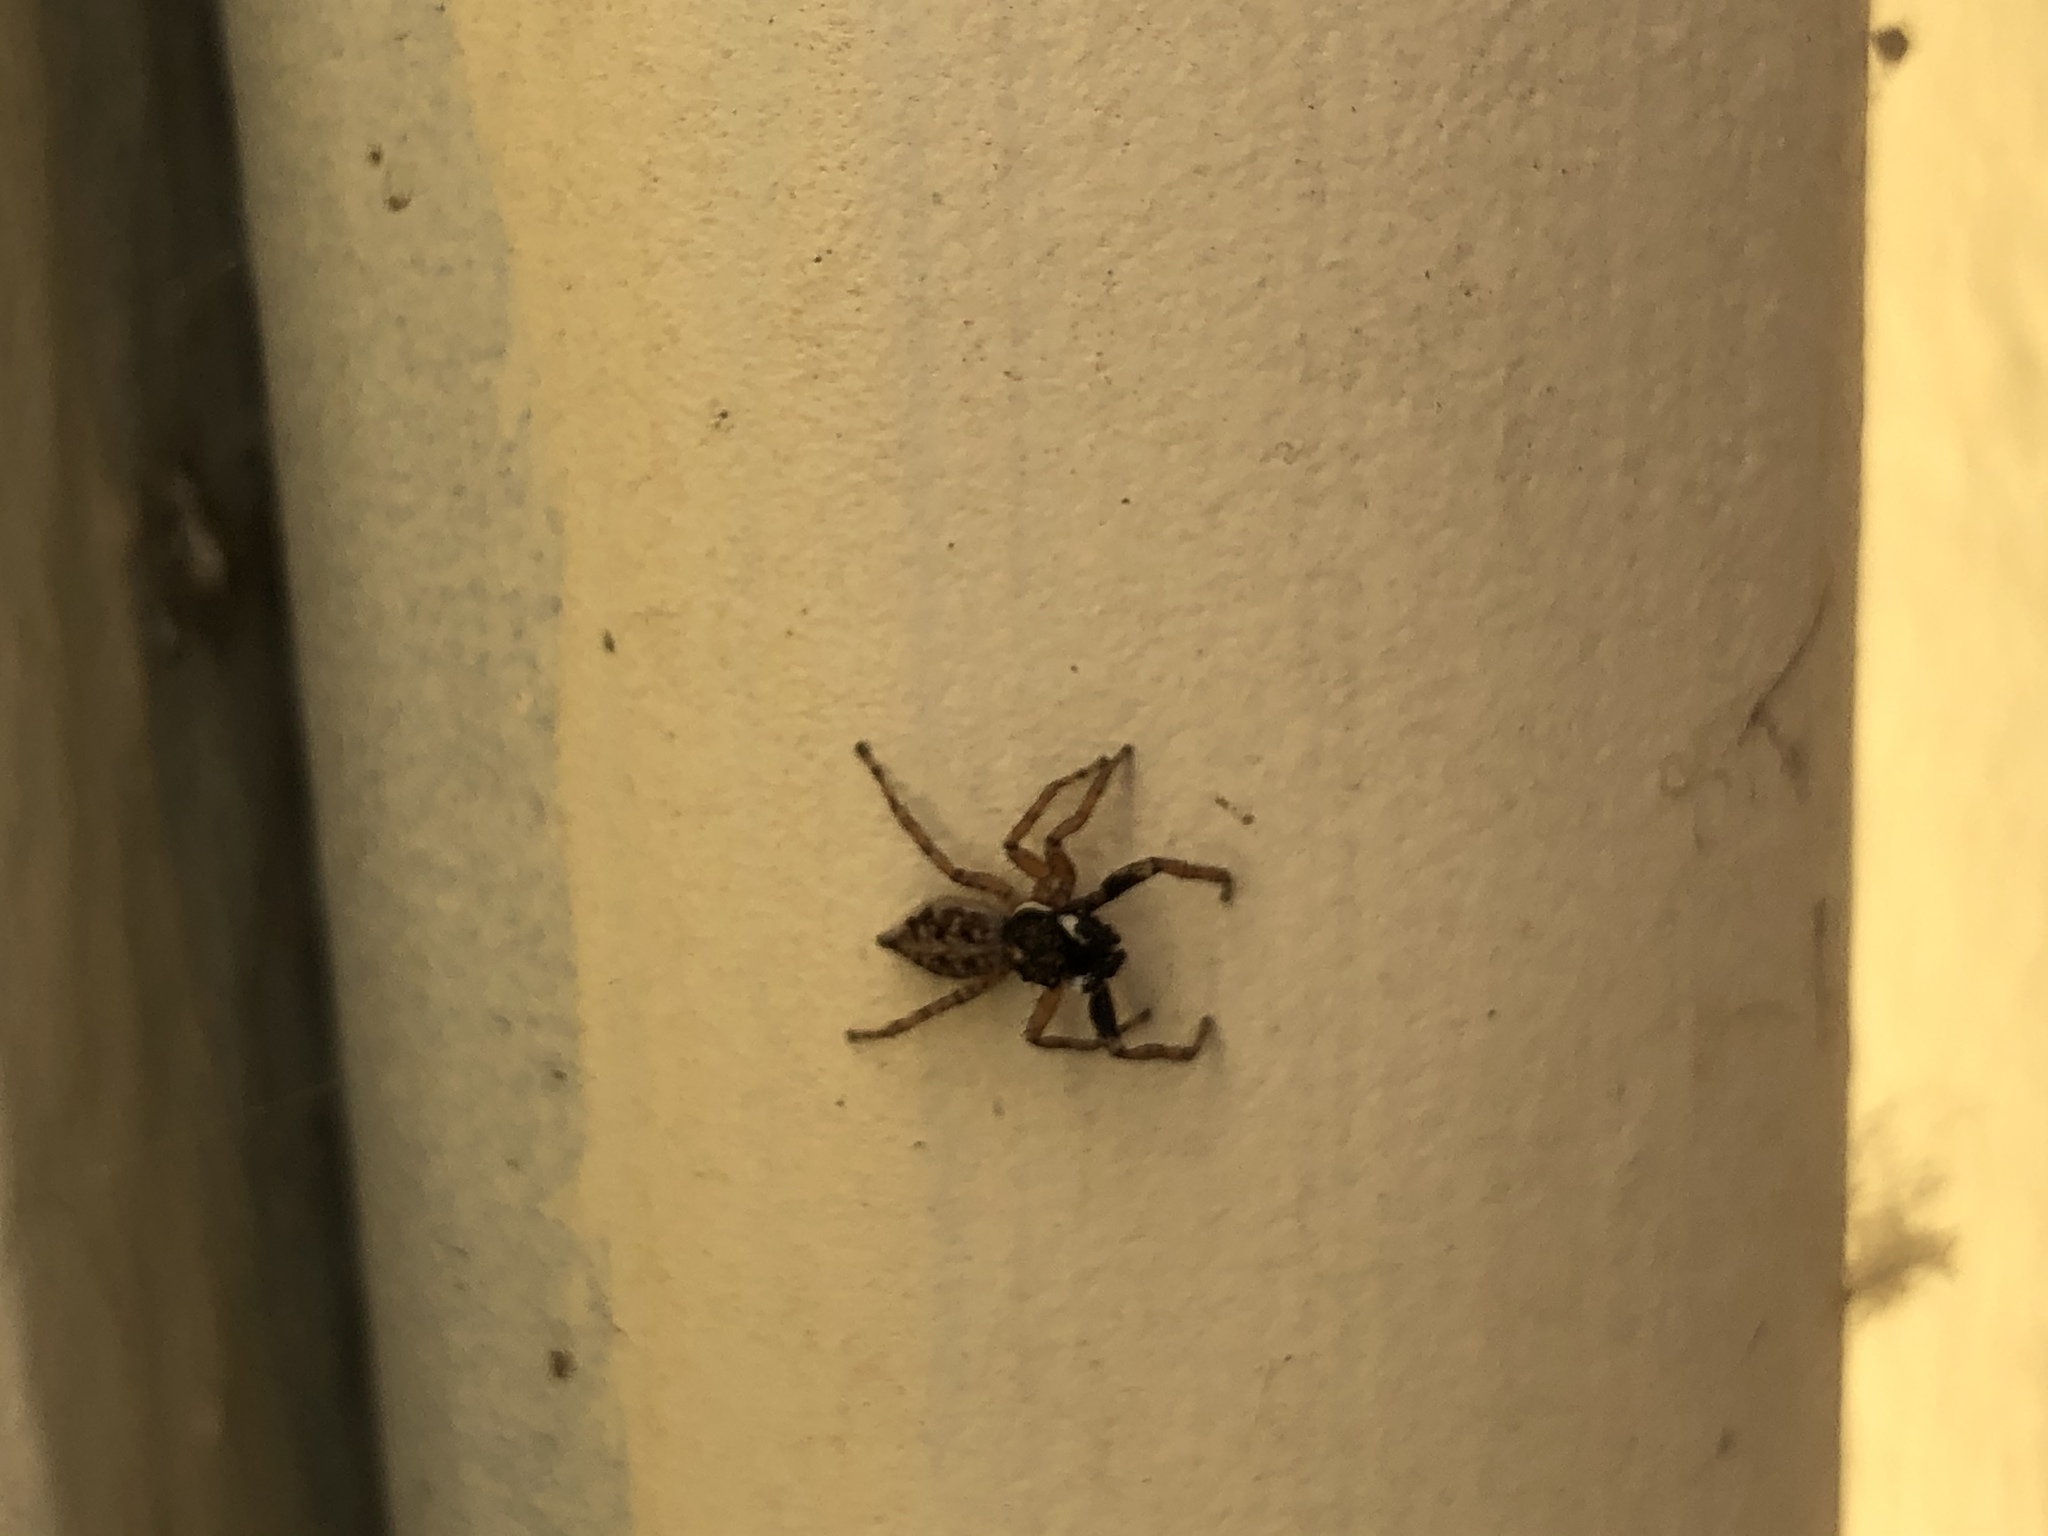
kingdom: Animalia
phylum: Arthropoda
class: Arachnida
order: Araneae
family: Salticidae
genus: Menemerus
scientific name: Menemerus semilimbatus
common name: Jumping spider
